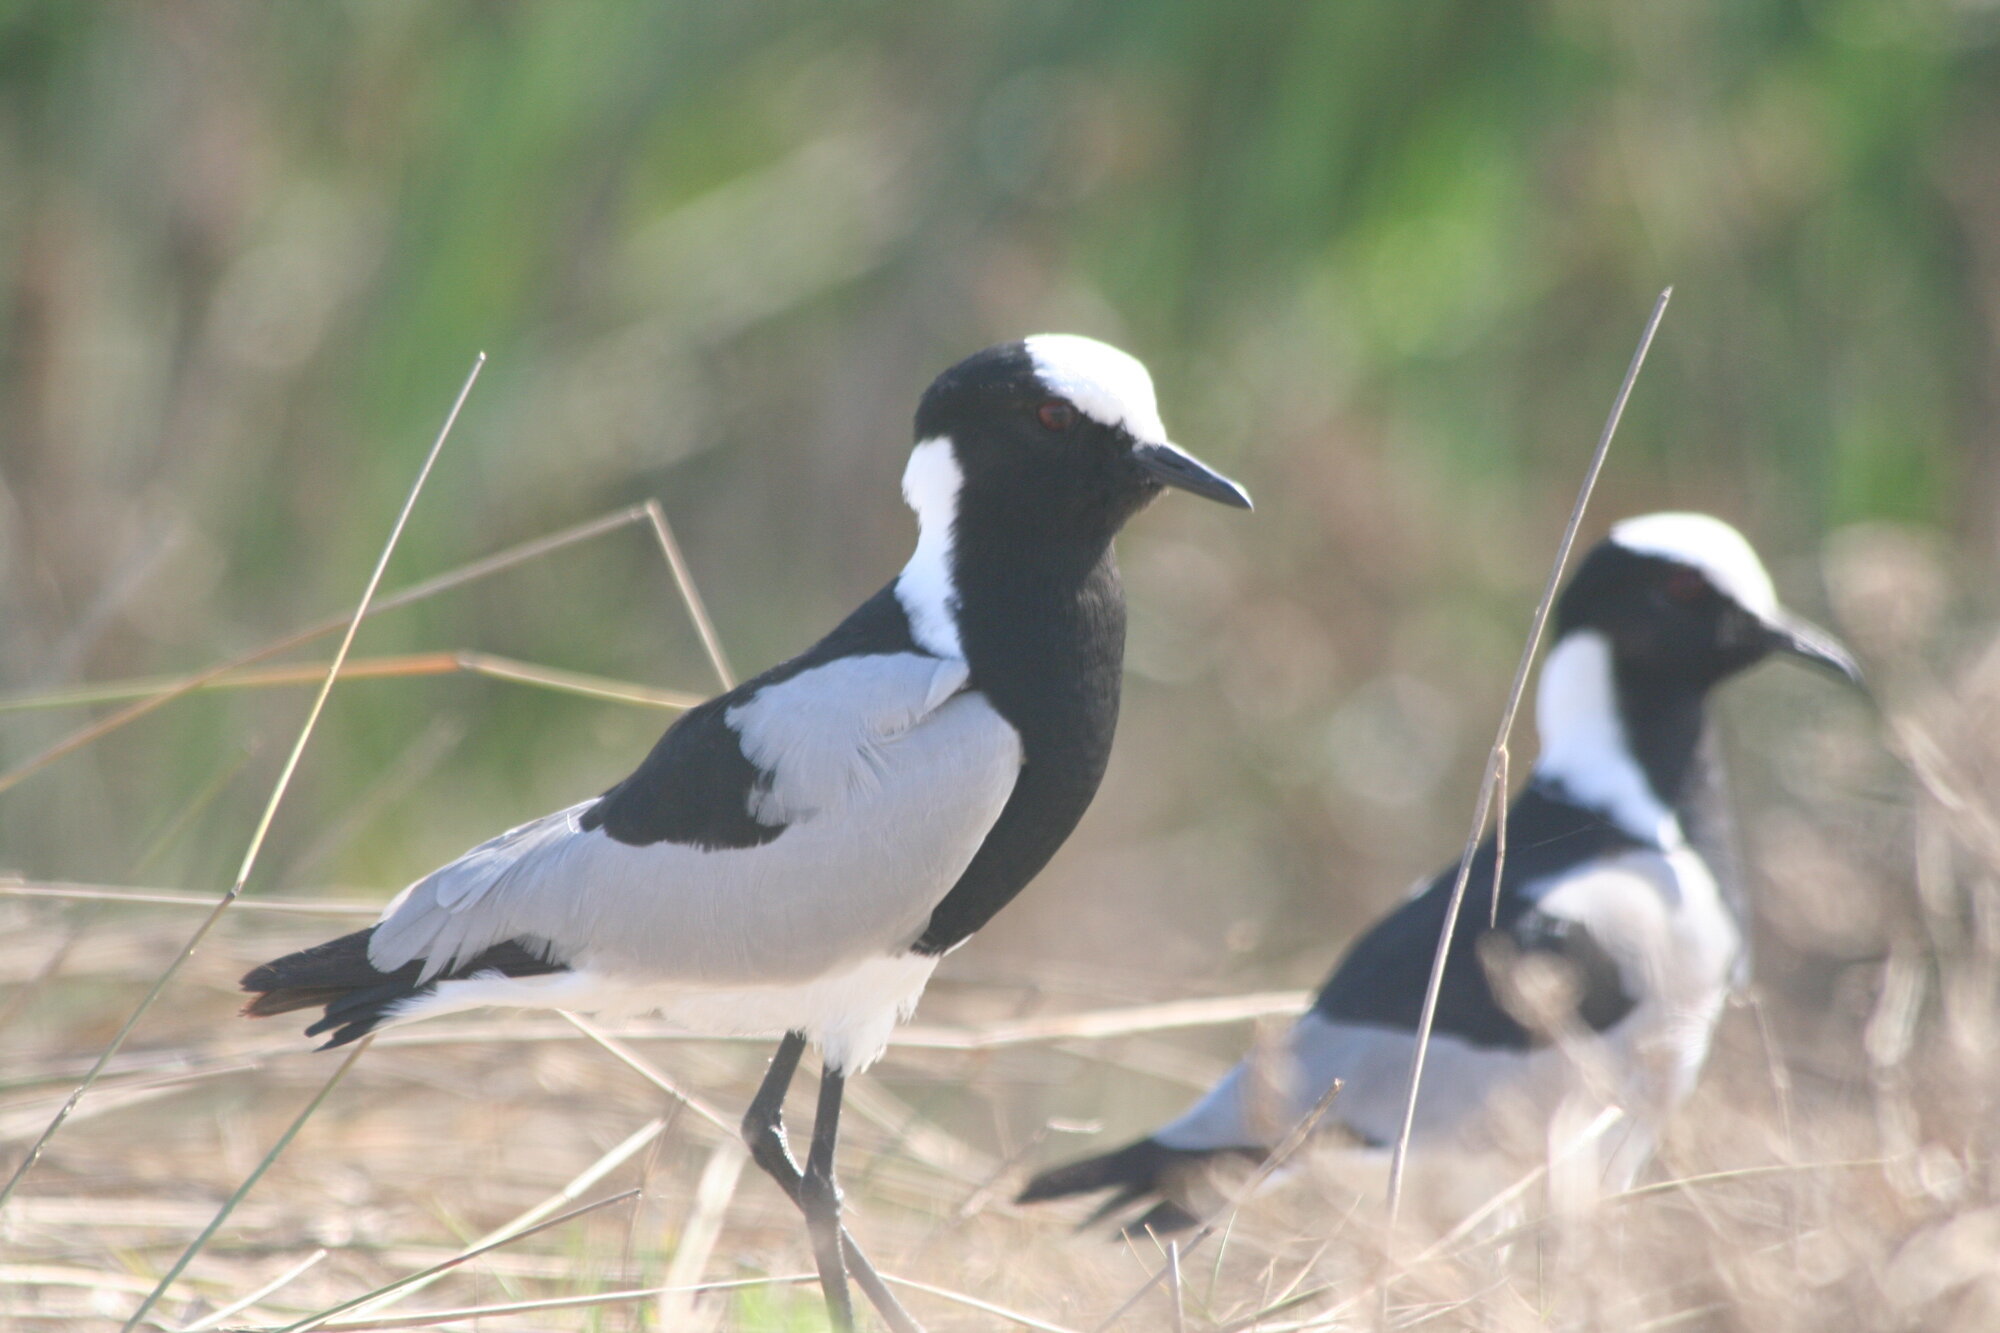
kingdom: Animalia
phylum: Chordata
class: Aves
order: Charadriiformes
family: Charadriidae
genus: Vanellus
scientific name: Vanellus armatus
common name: Blacksmith lapwing
